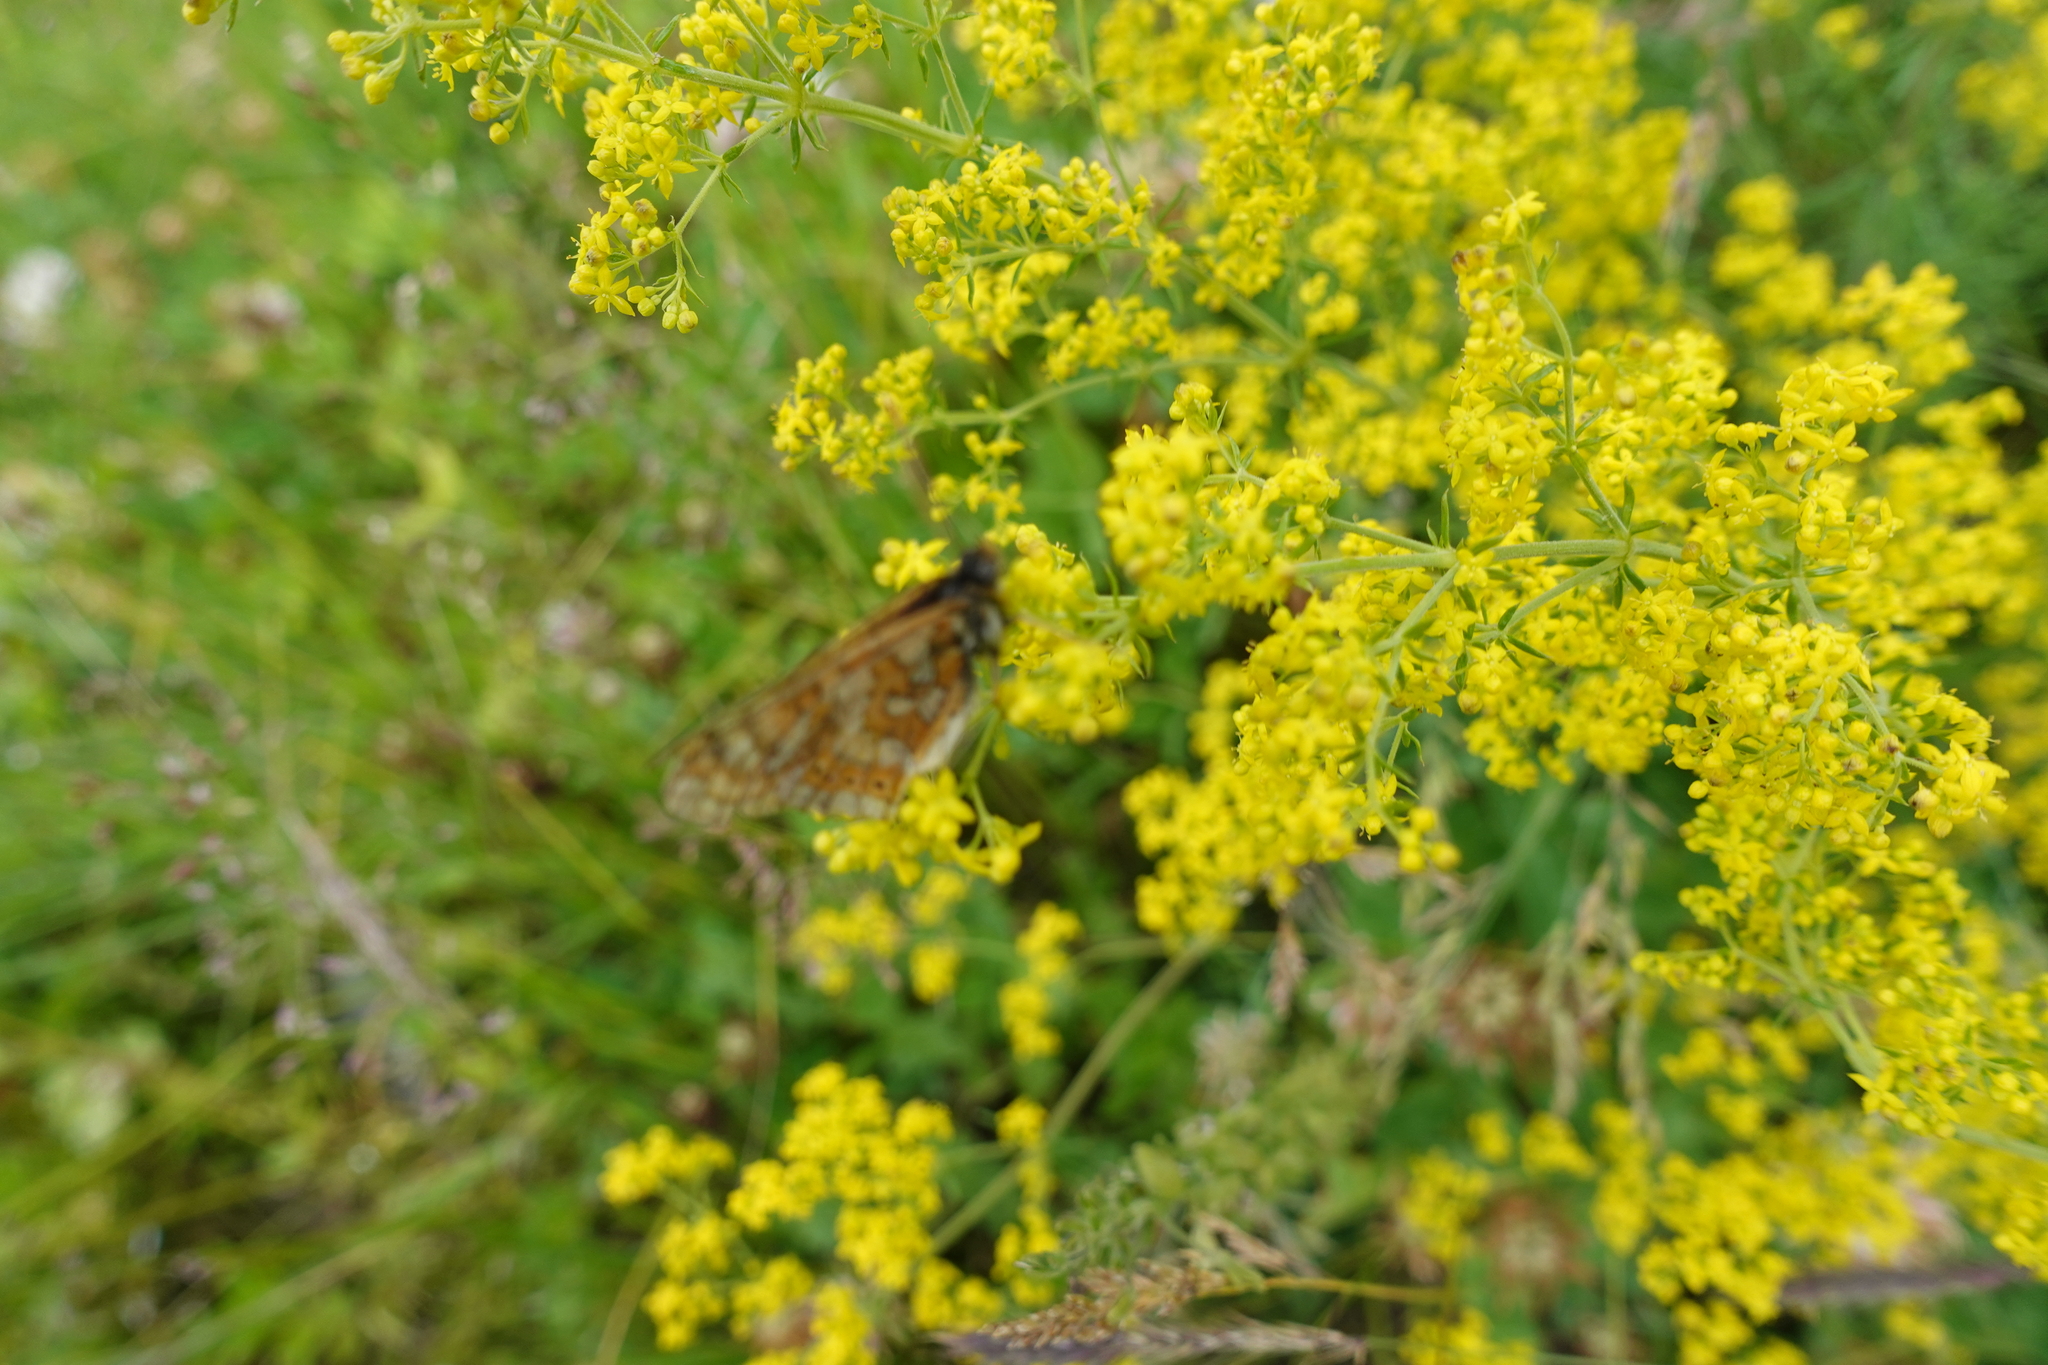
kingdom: Plantae
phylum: Tracheophyta
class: Magnoliopsida
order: Gentianales
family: Rubiaceae
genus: Galium
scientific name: Galium verum
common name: Lady's bedstraw
